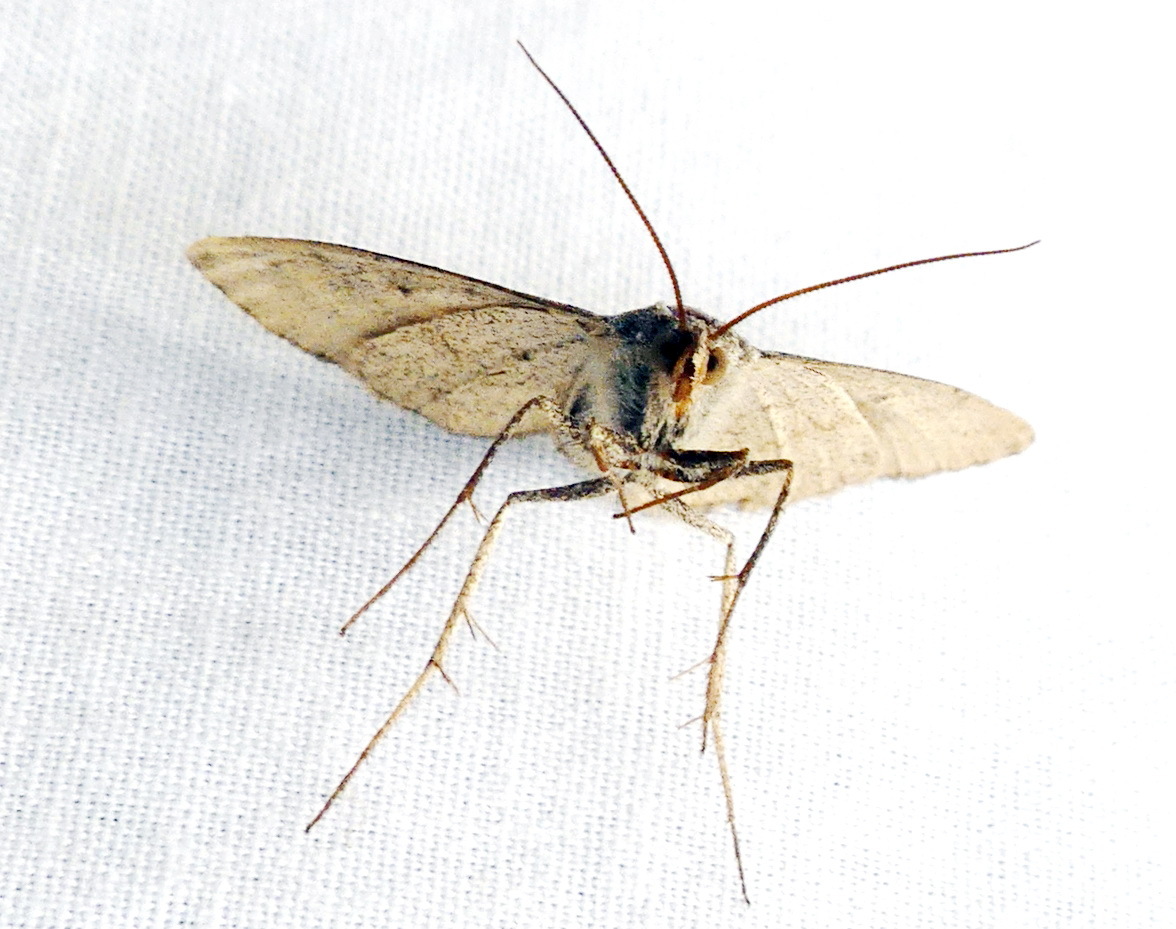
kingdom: Animalia
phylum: Arthropoda
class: Insecta
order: Lepidoptera
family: Erebidae
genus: Caenurgina
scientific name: Caenurgina erechtea
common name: Forage looper moth
